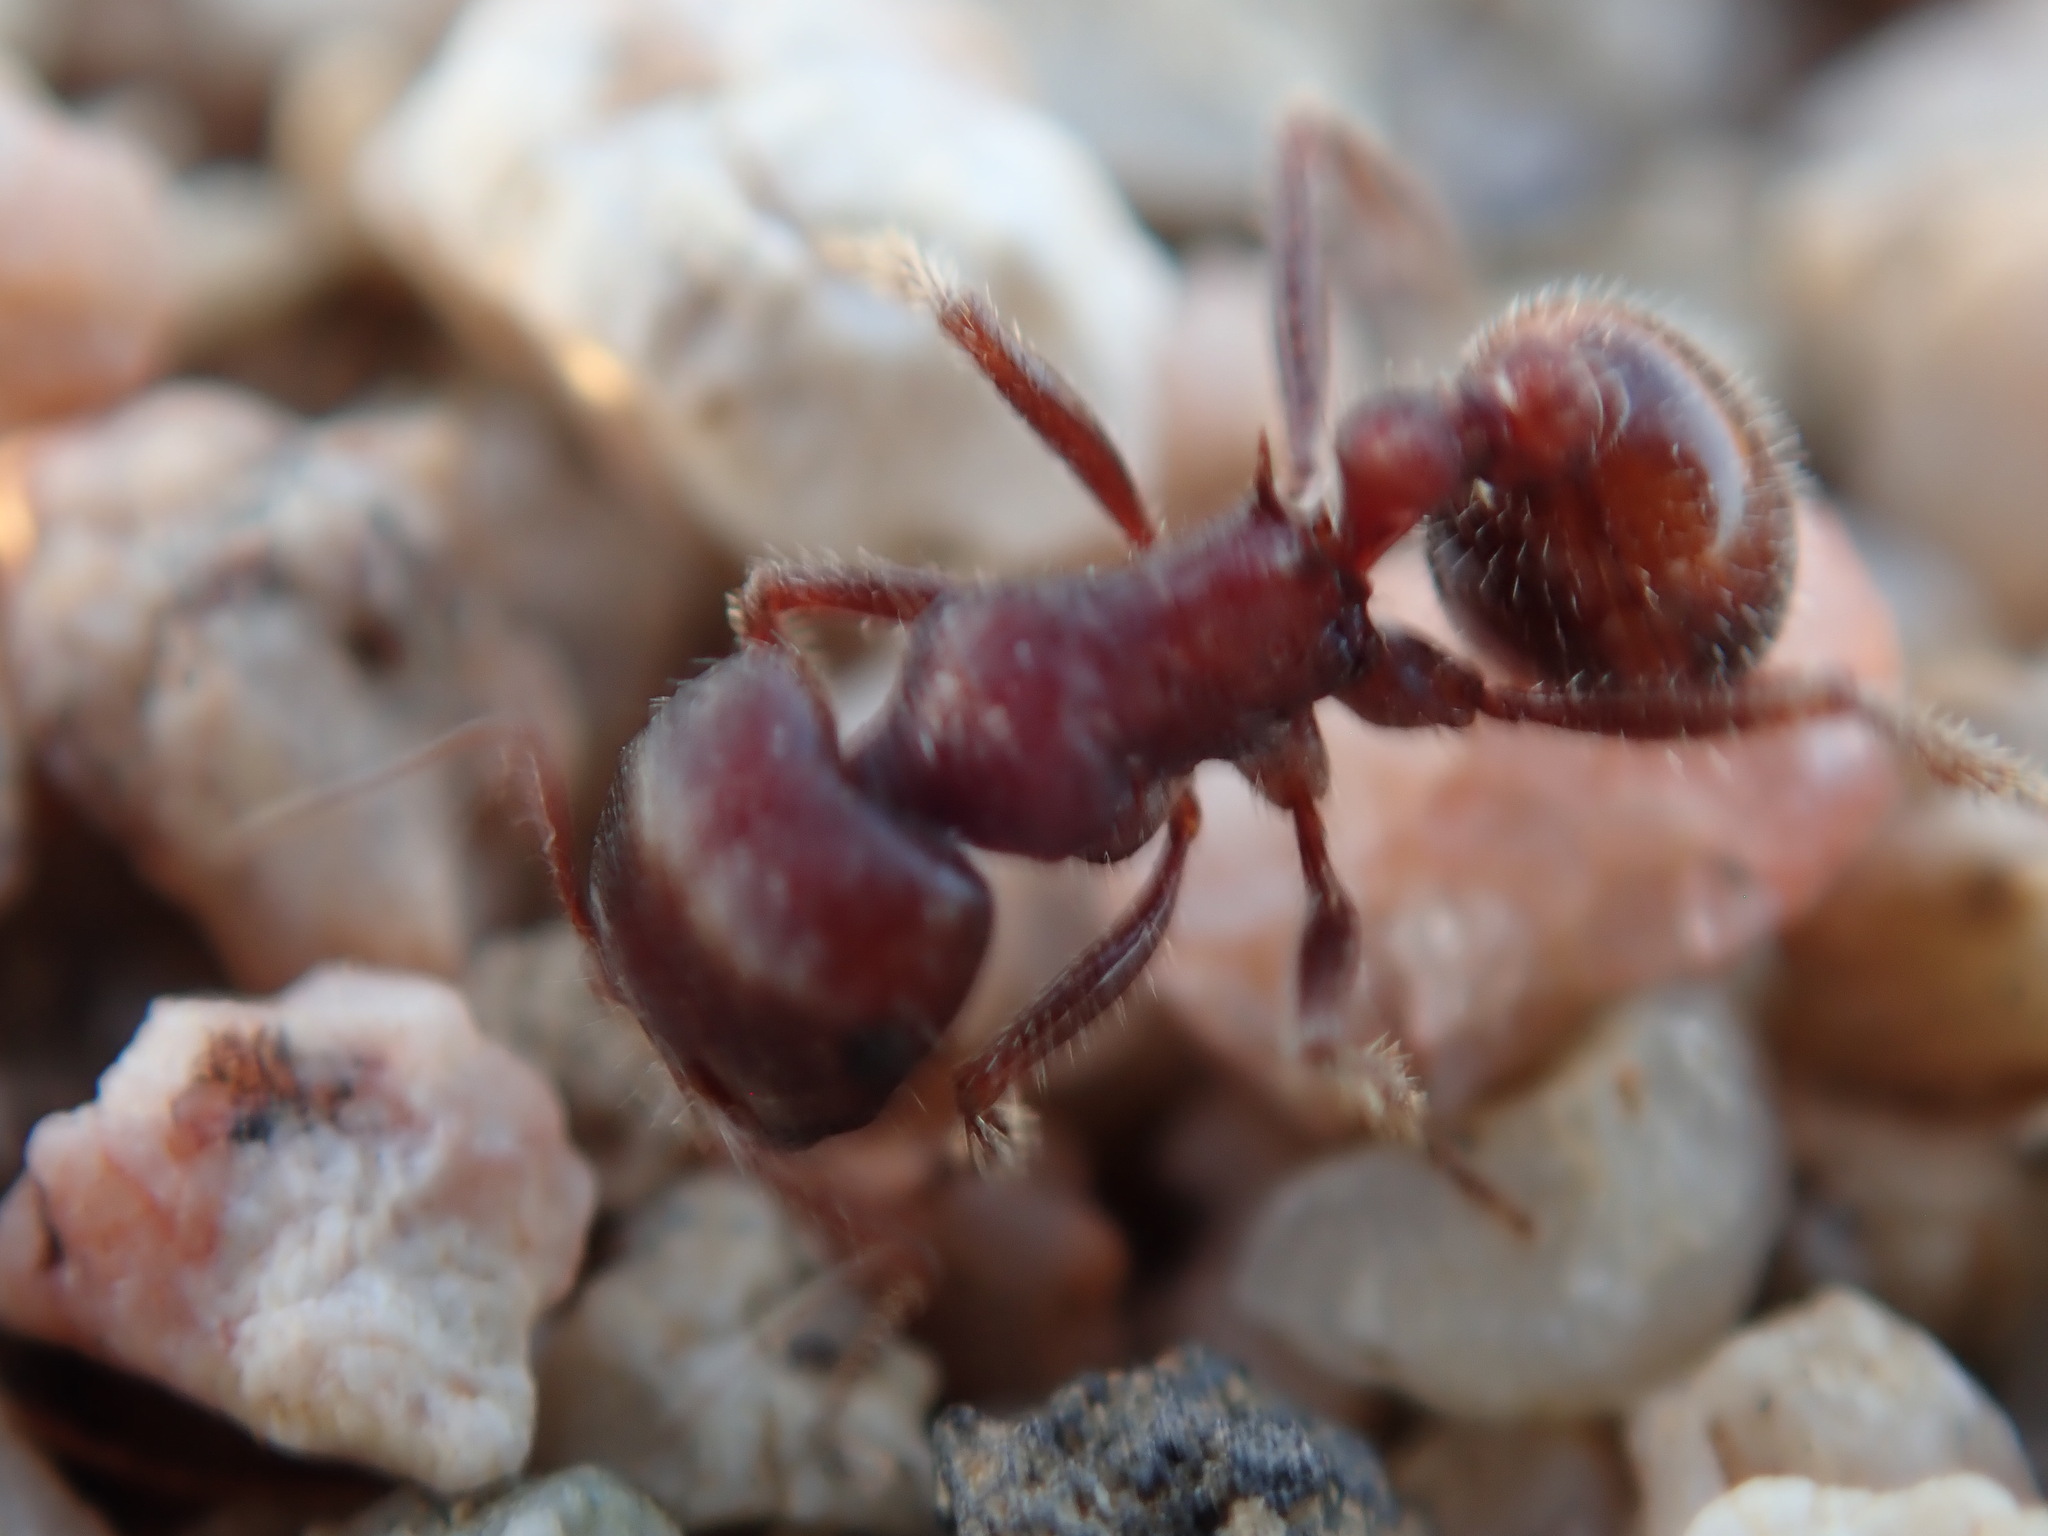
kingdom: Animalia
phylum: Arthropoda
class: Insecta
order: Hymenoptera
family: Formicidae
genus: Pogonomyrmex
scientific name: Pogonomyrmex rugosus
